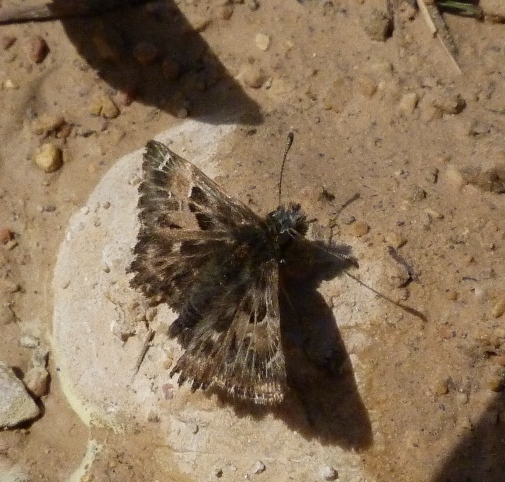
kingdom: Animalia
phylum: Arthropoda
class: Insecta
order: Lepidoptera
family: Hesperiidae
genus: Carcharodus
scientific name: Carcharodus alceae
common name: Mallow skipper
